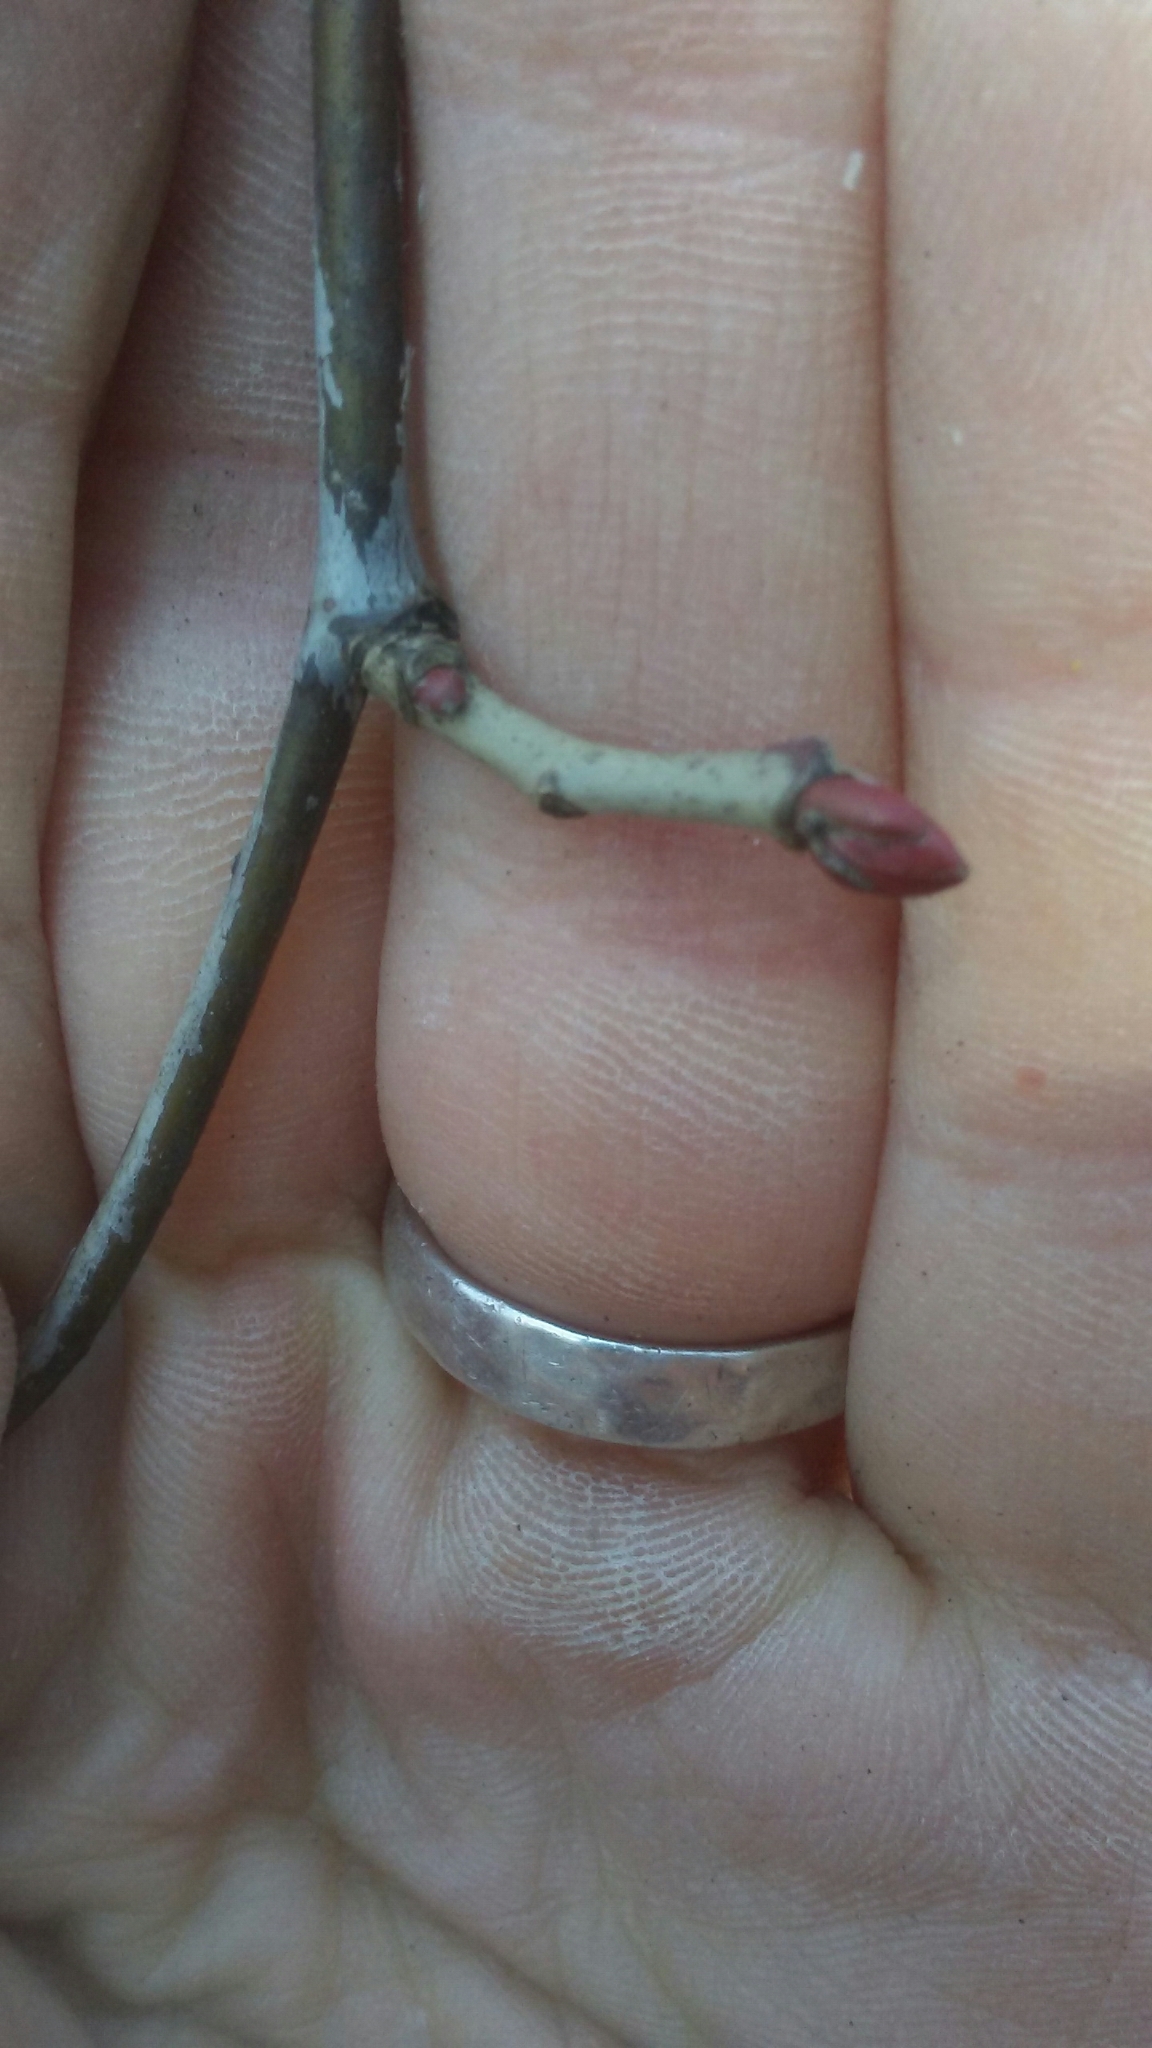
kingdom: Plantae
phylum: Tracheophyta
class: Magnoliopsida
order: Malvales
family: Malvaceae
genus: Tilia
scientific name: Tilia americana
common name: Basswood
